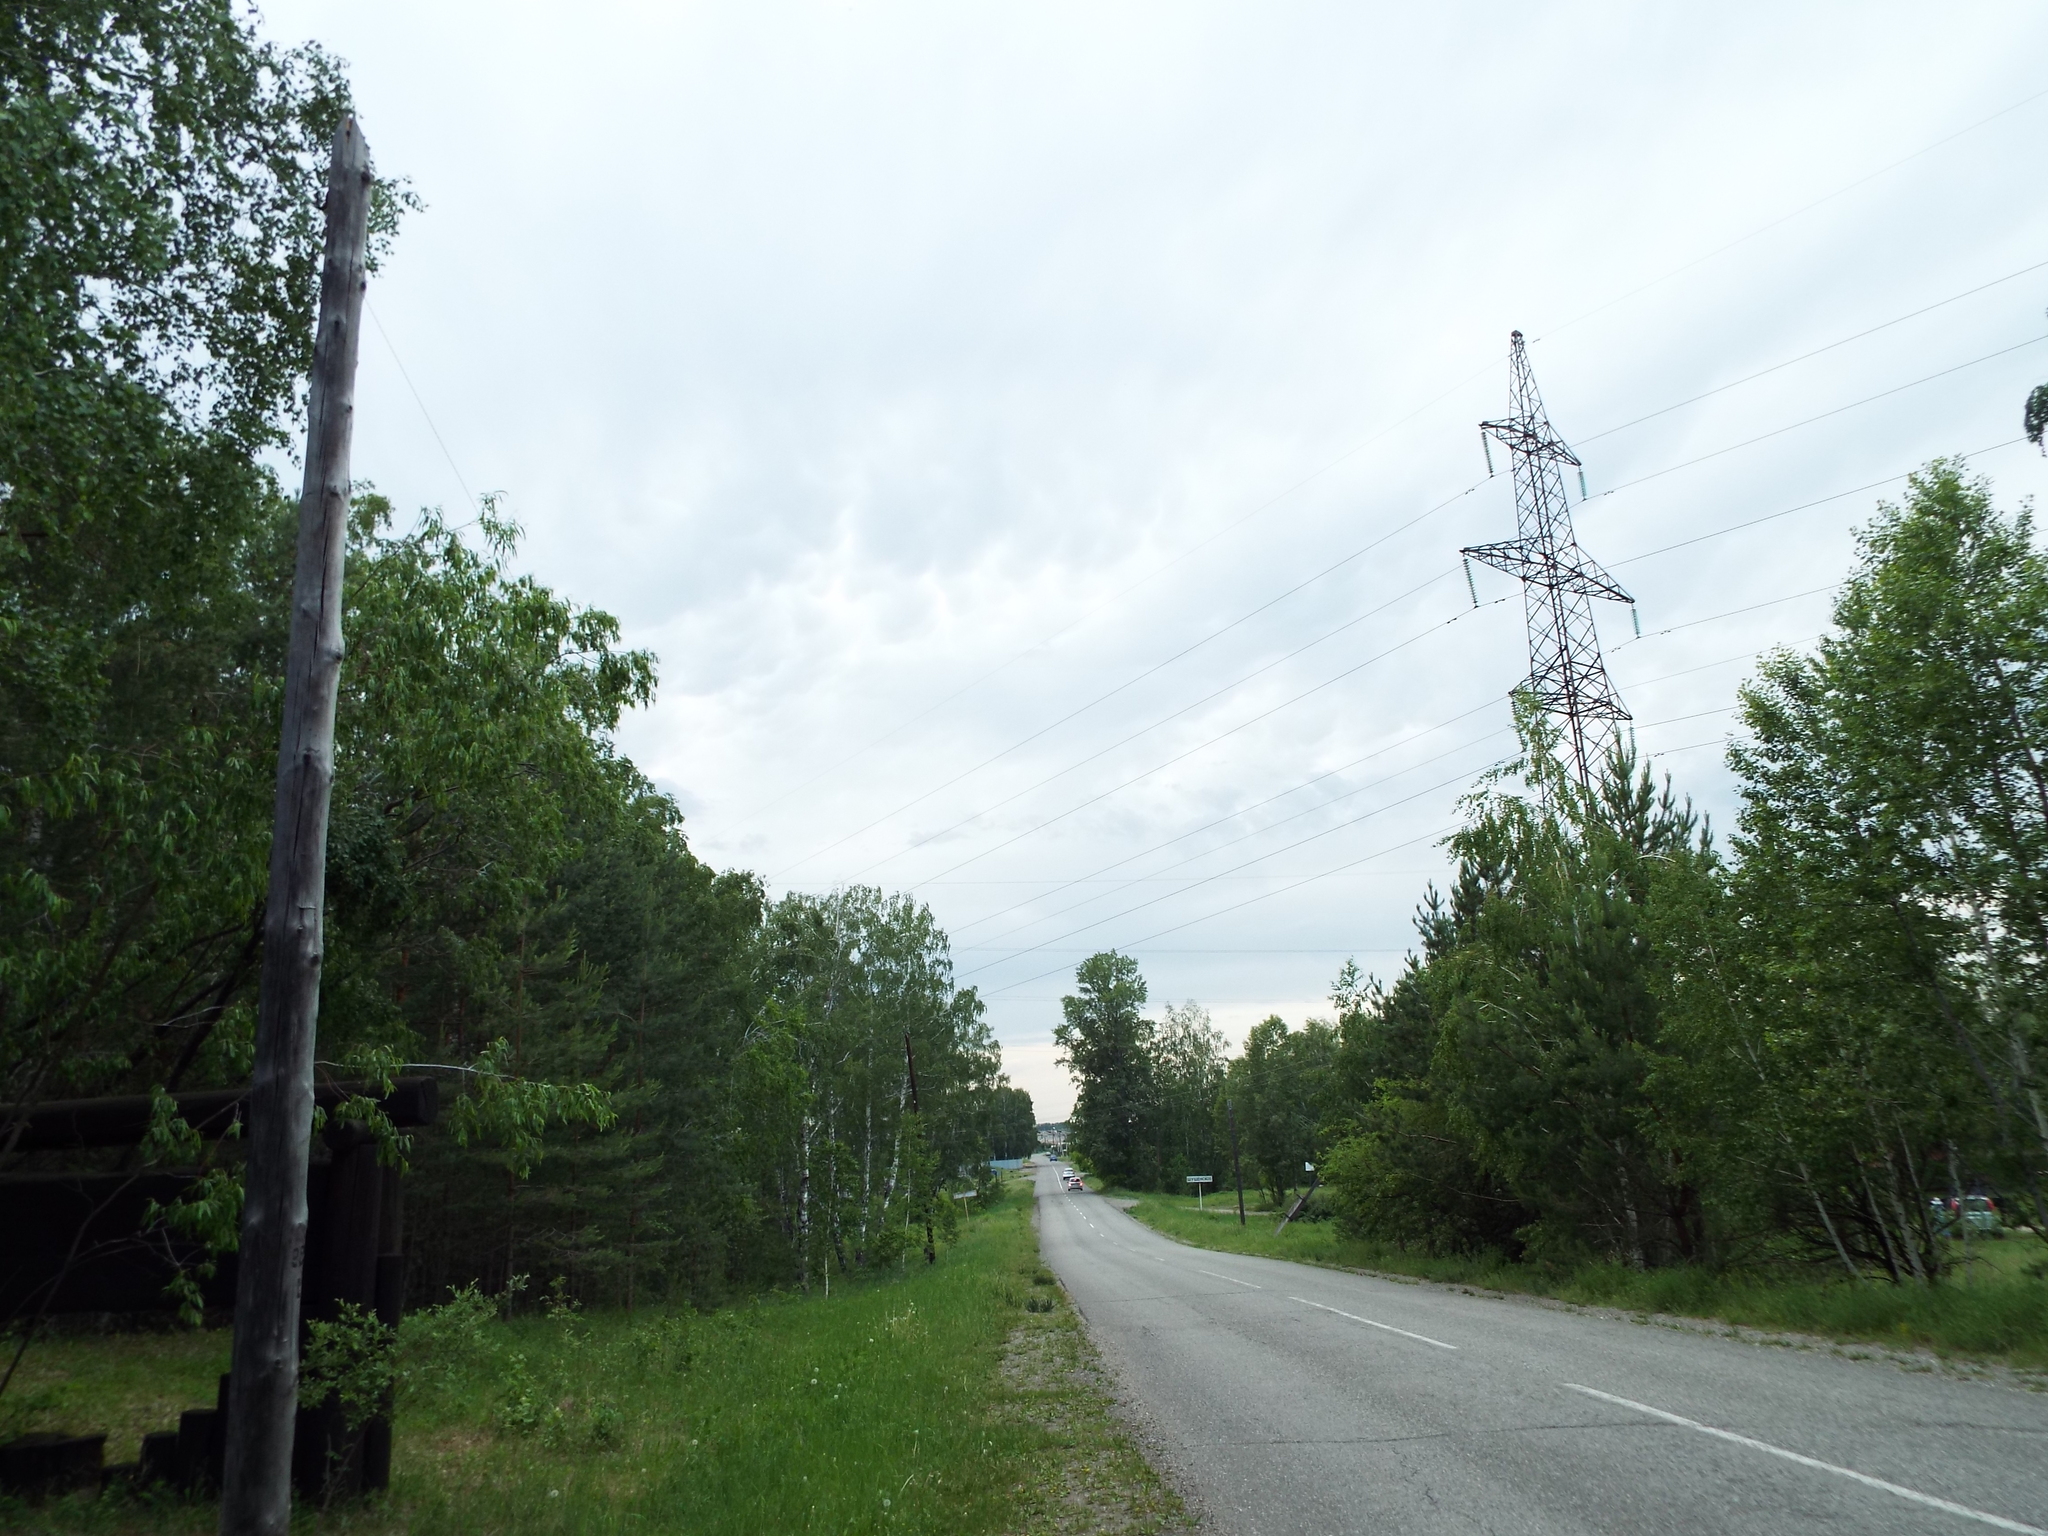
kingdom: Plantae
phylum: Tracheophyta
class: Pinopsida
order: Pinales
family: Pinaceae
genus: Pinus
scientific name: Pinus sylvestris
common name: Scots pine
